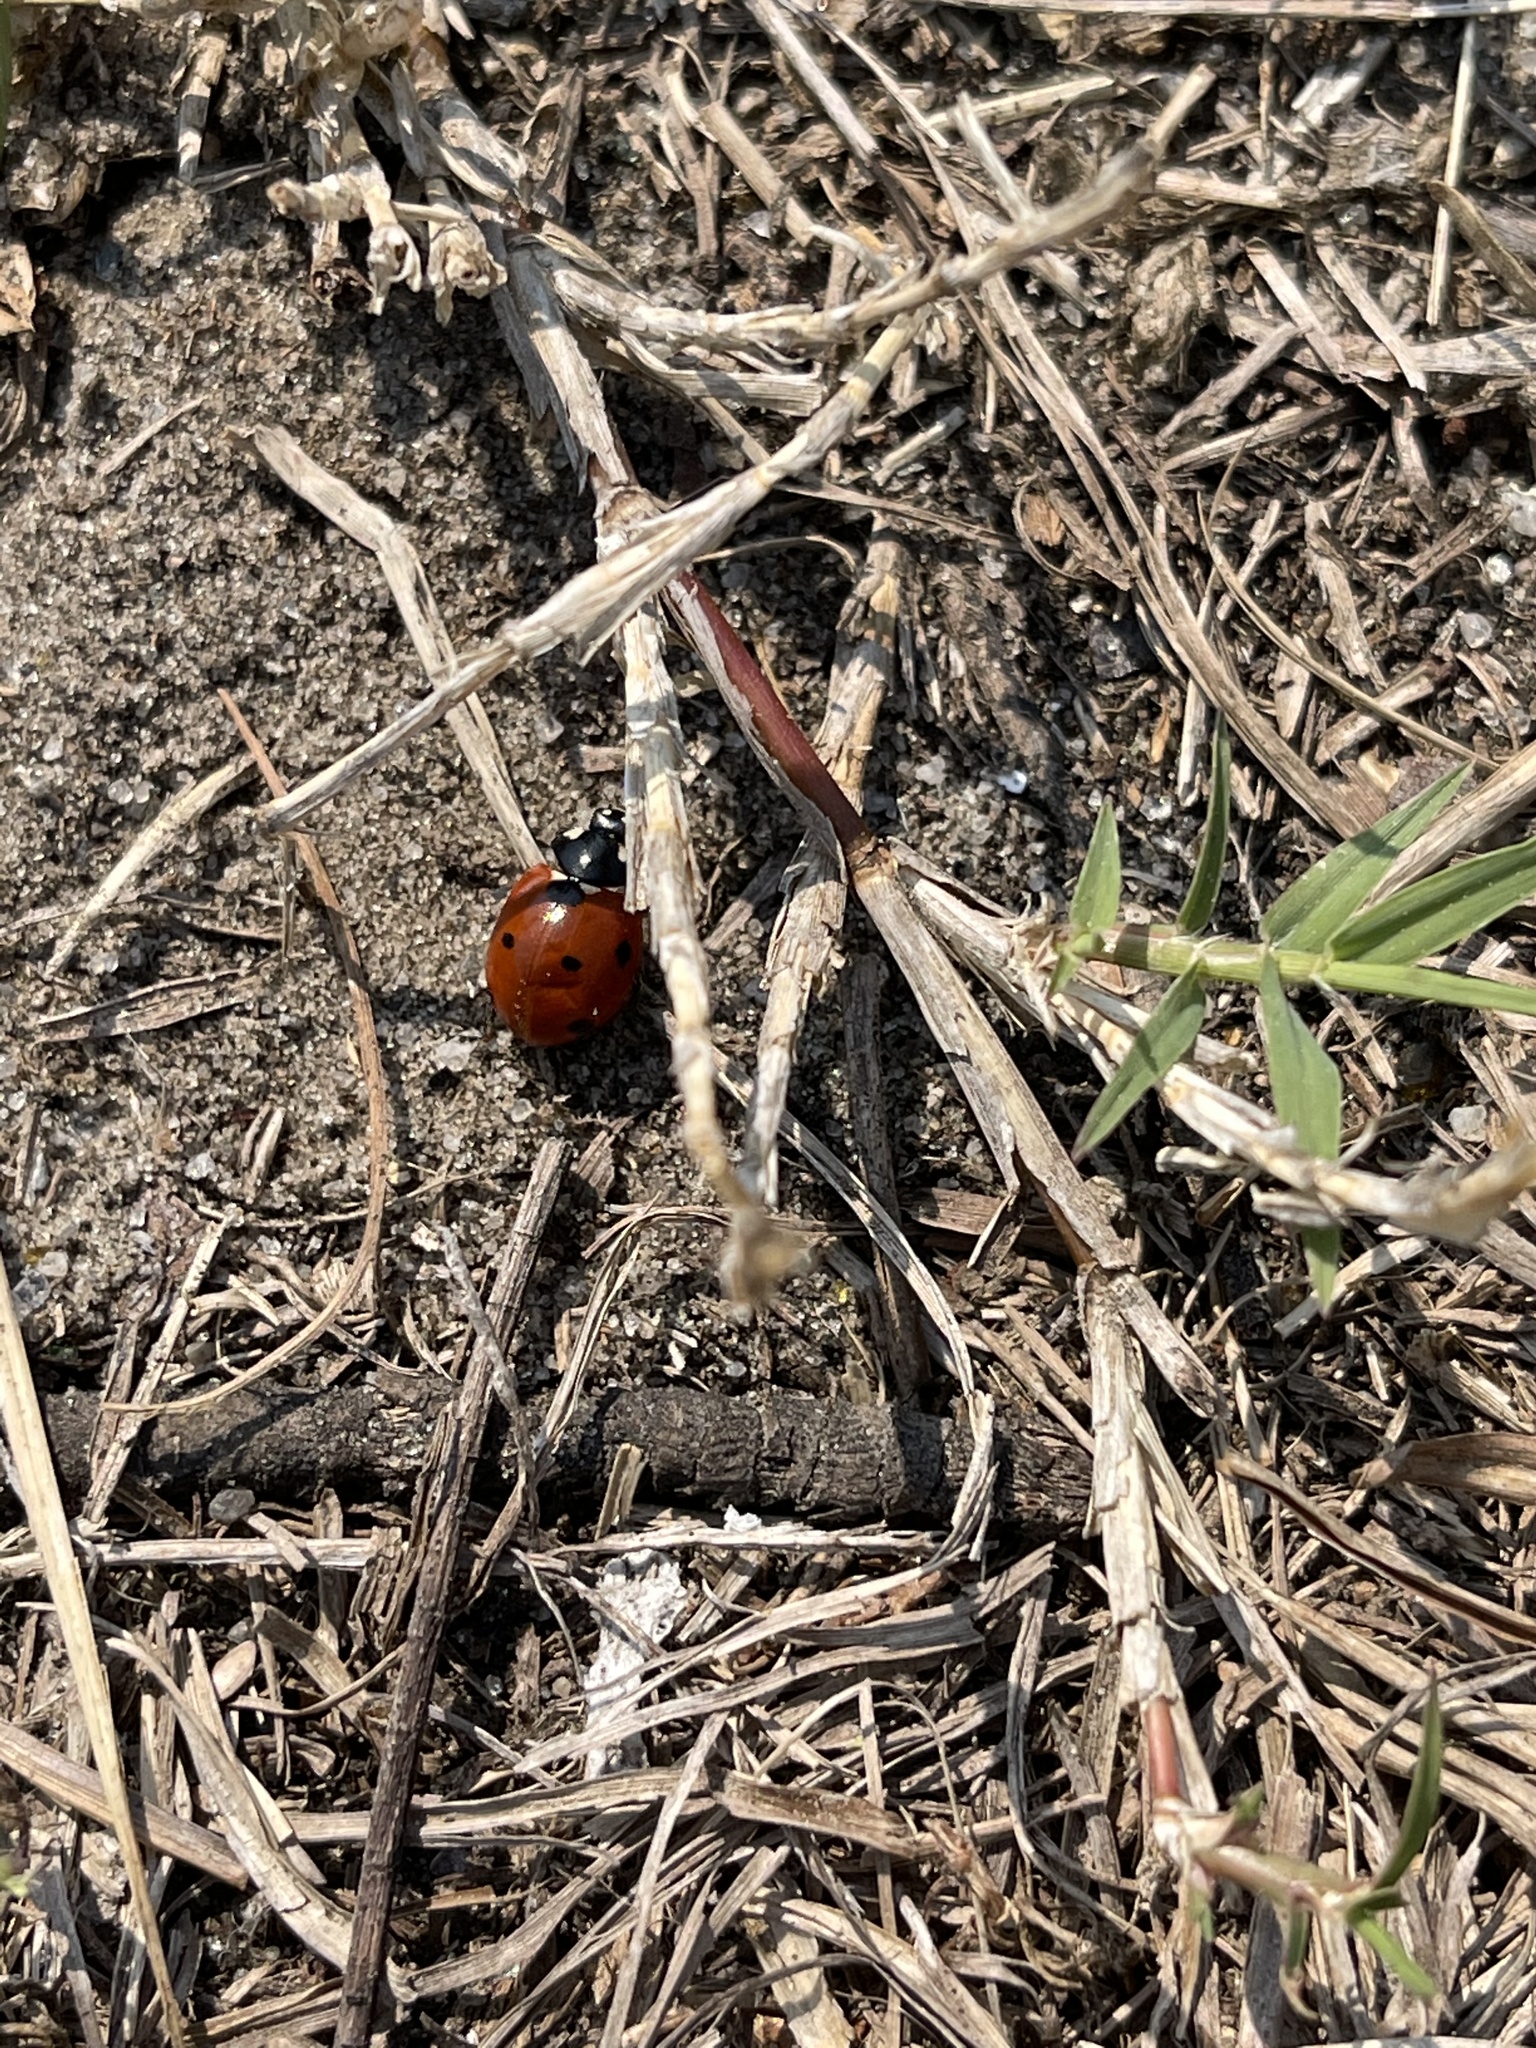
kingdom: Animalia
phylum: Arthropoda
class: Insecta
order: Coleoptera
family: Coccinellidae
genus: Coccinella
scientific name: Coccinella septempunctata
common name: Sevenspotted lady beetle
